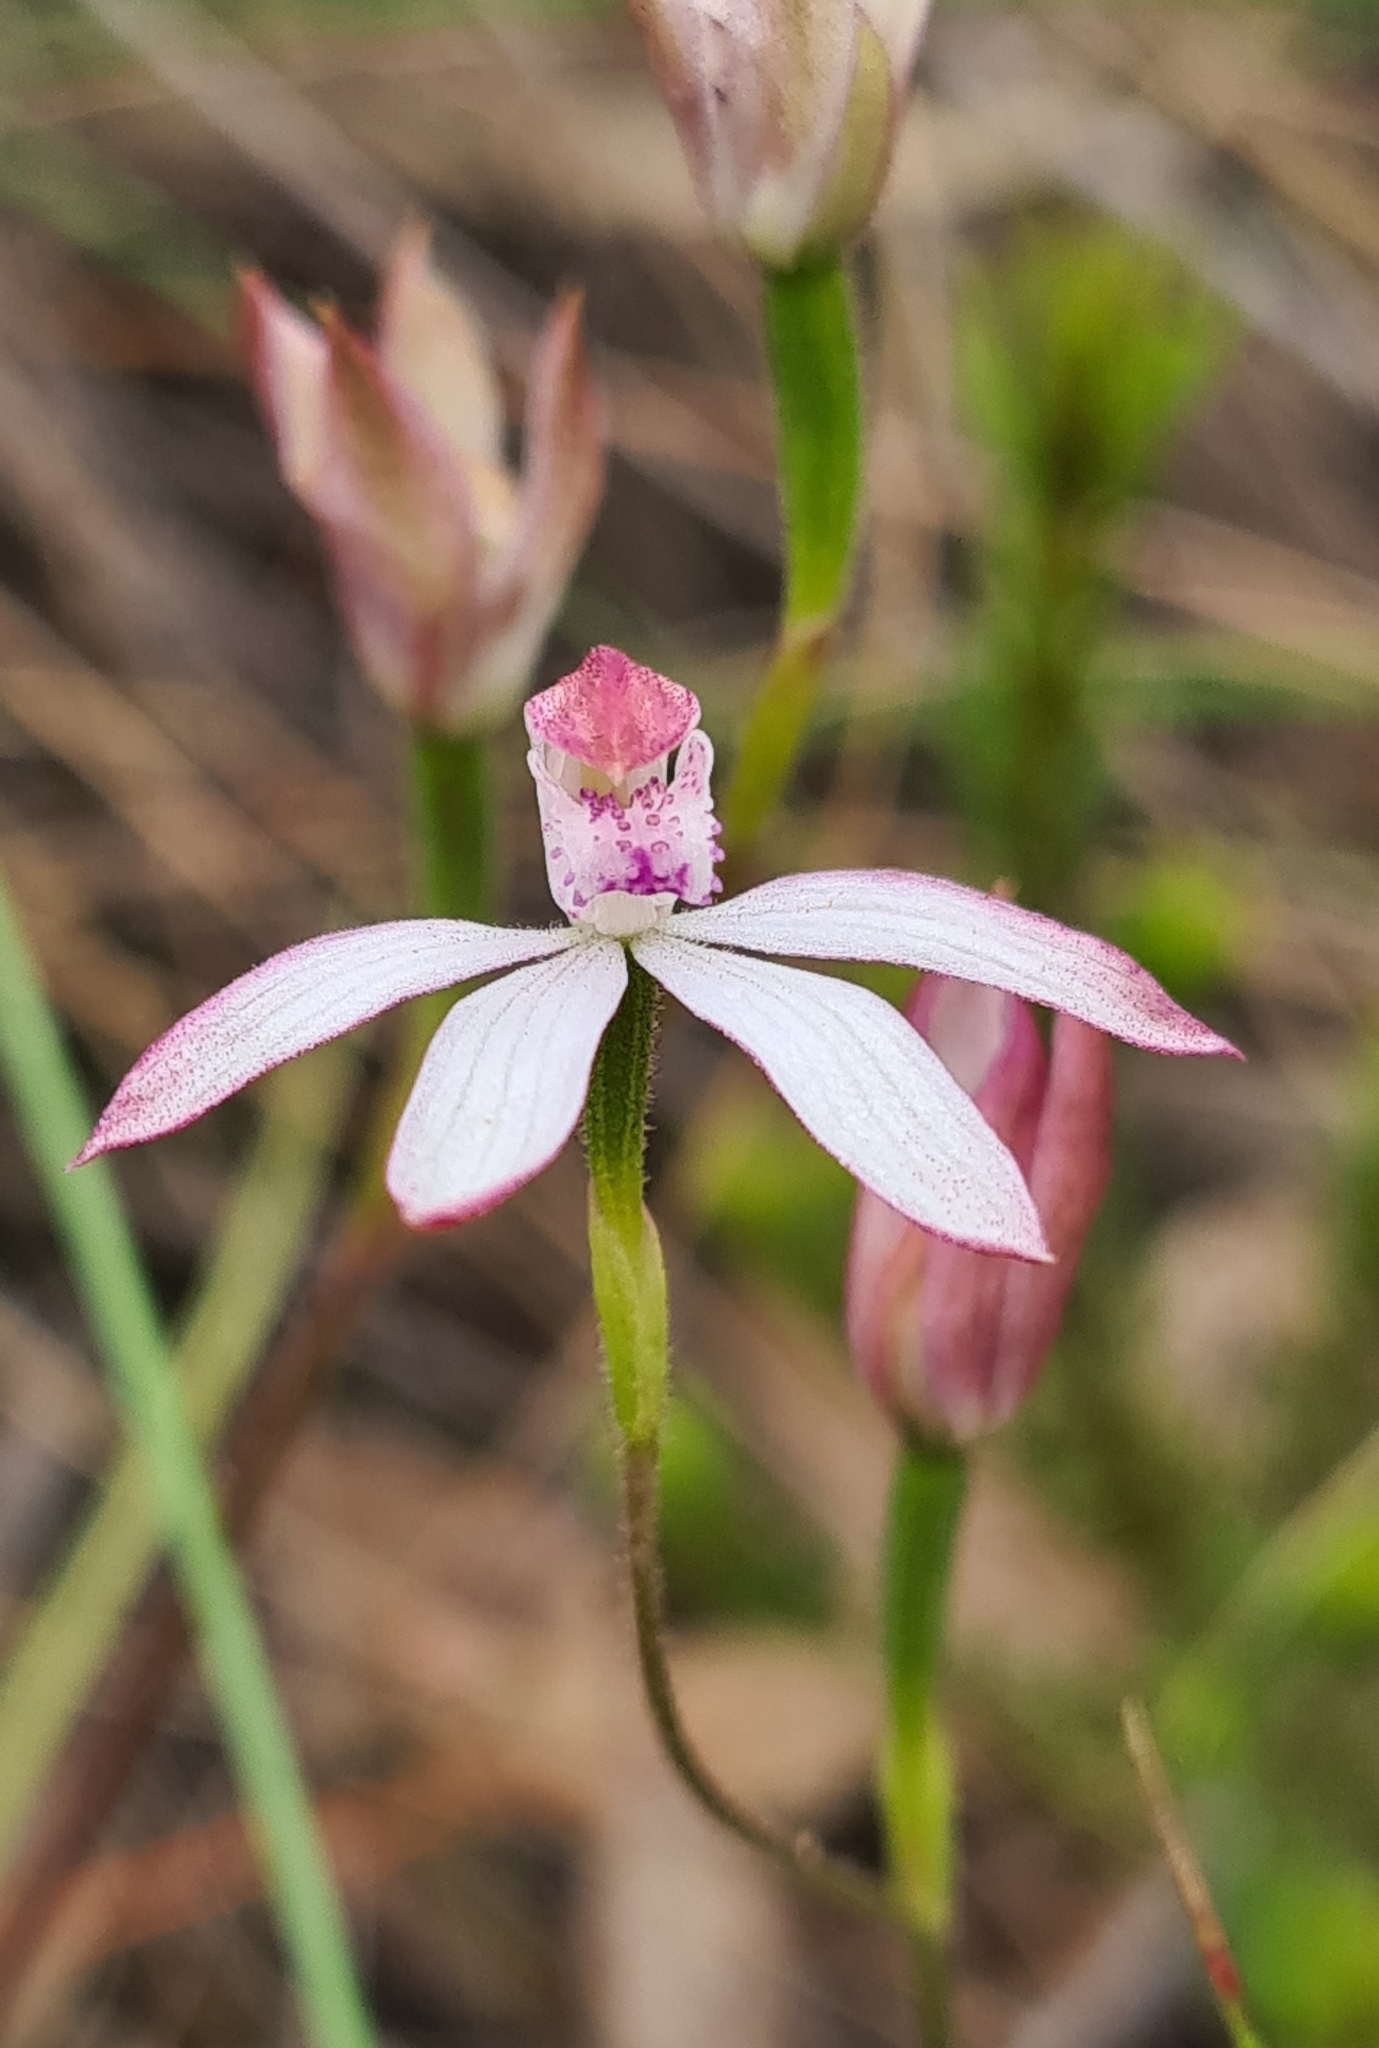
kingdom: Plantae
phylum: Tracheophyta
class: Liliopsida
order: Asparagales
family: Orchidaceae
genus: Caladenia
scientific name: Caladenia moschata
